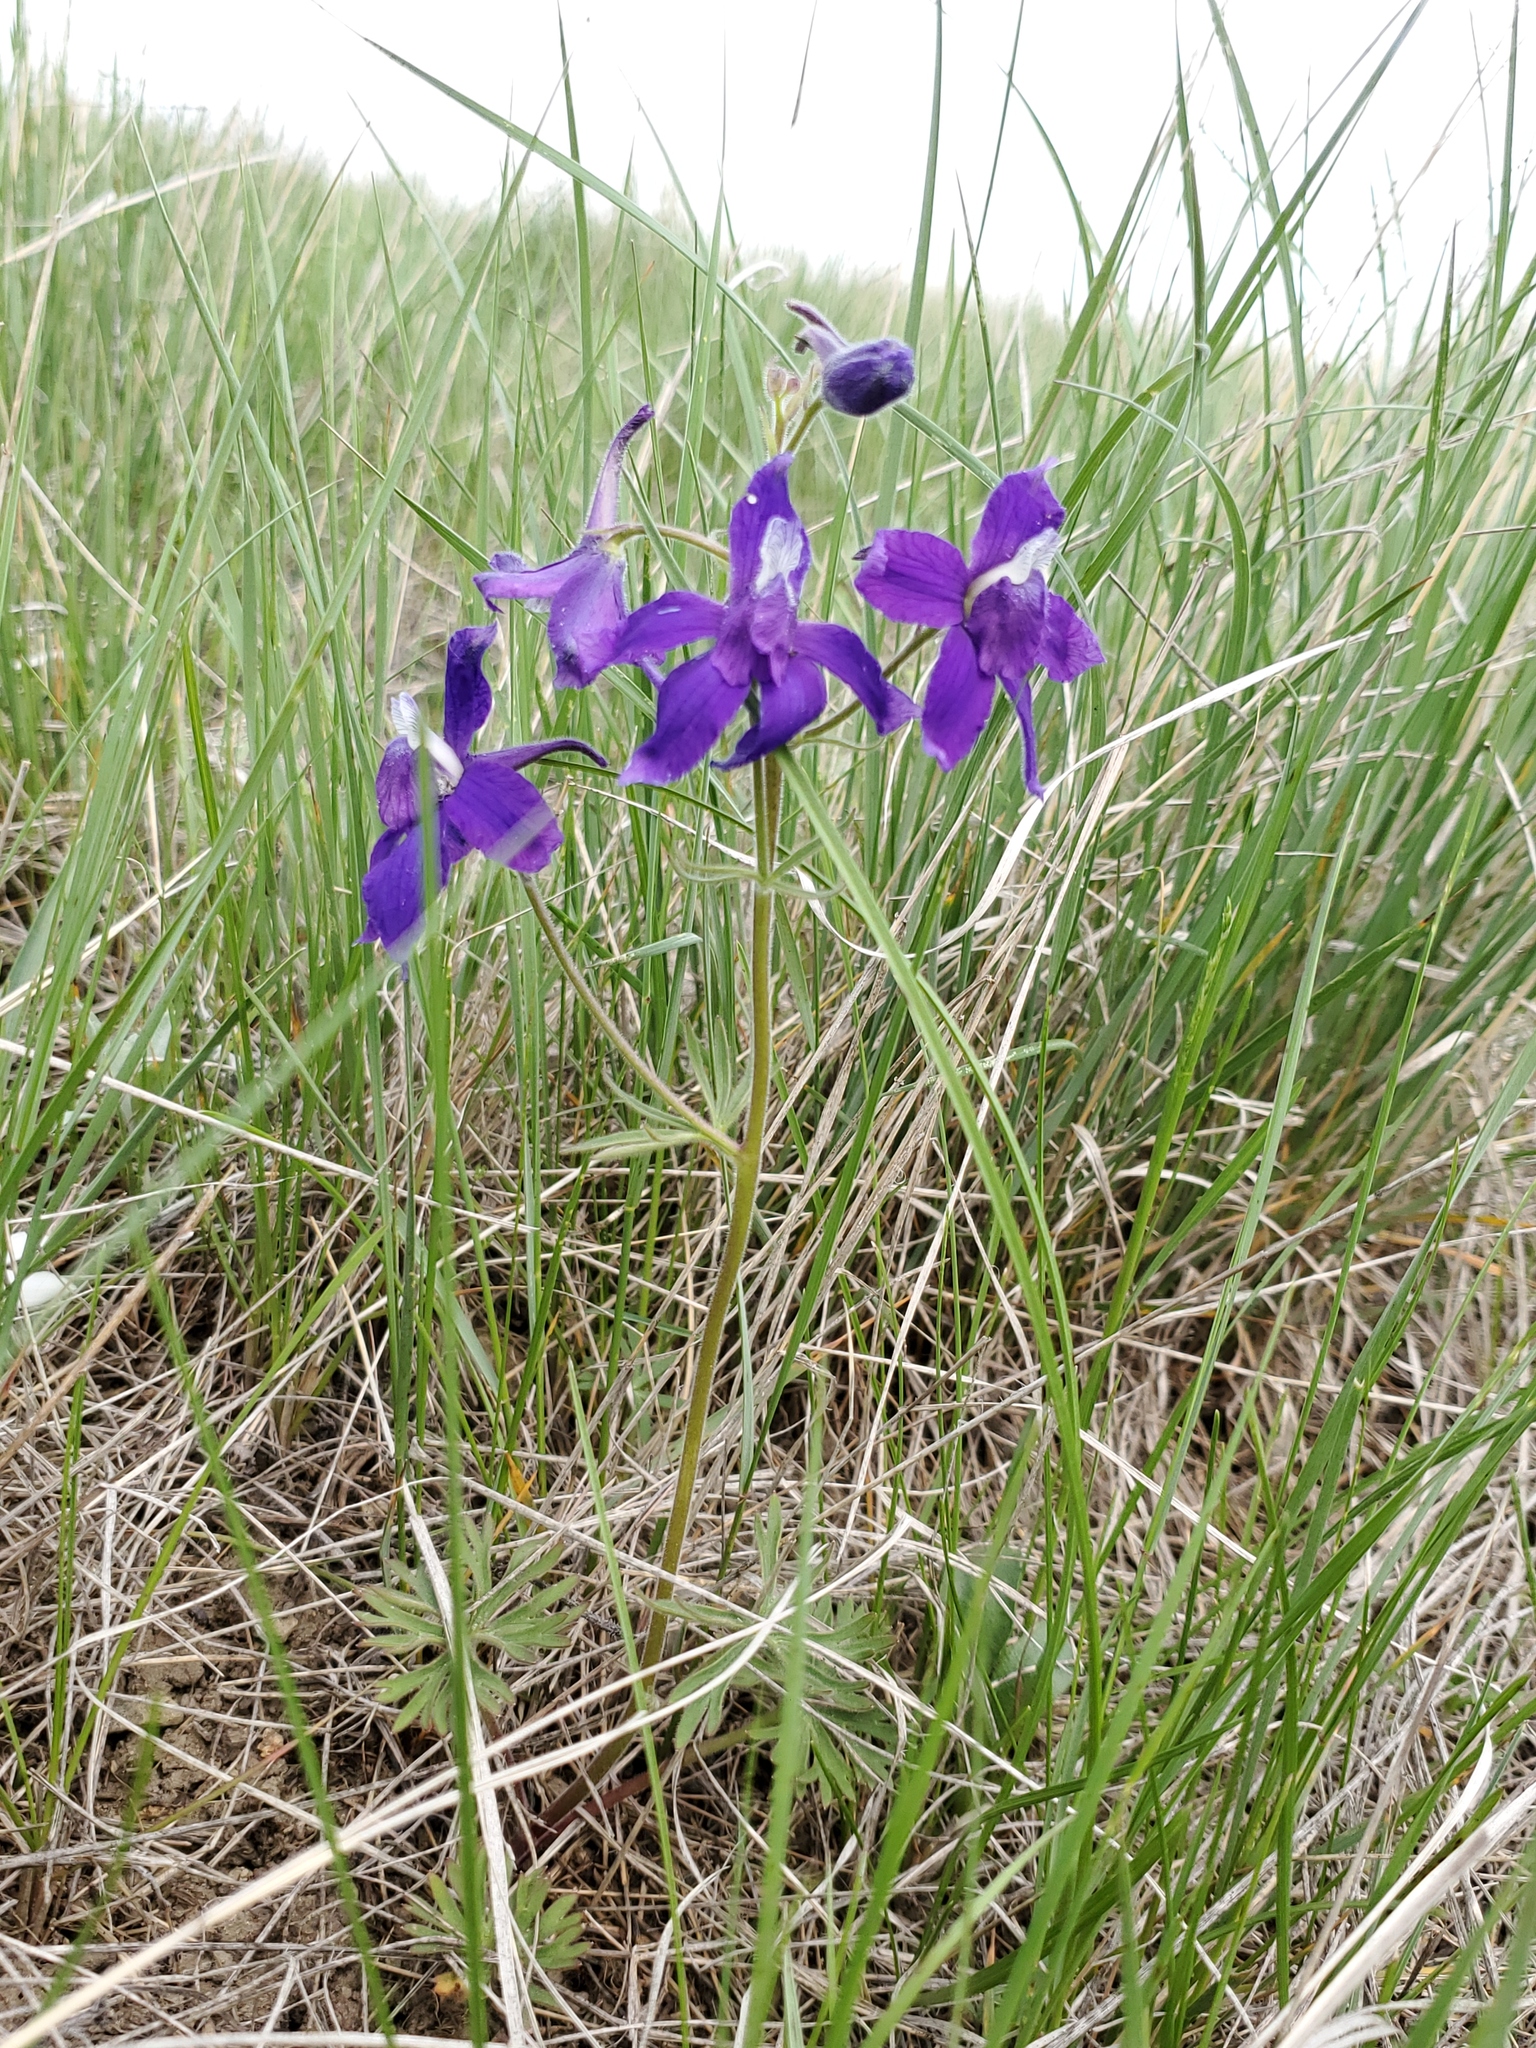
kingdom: Plantae
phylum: Tracheophyta
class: Magnoliopsida
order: Ranunculales
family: Ranunculaceae
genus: Delphinium
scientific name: Delphinium bicolor
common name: Low larkspur
